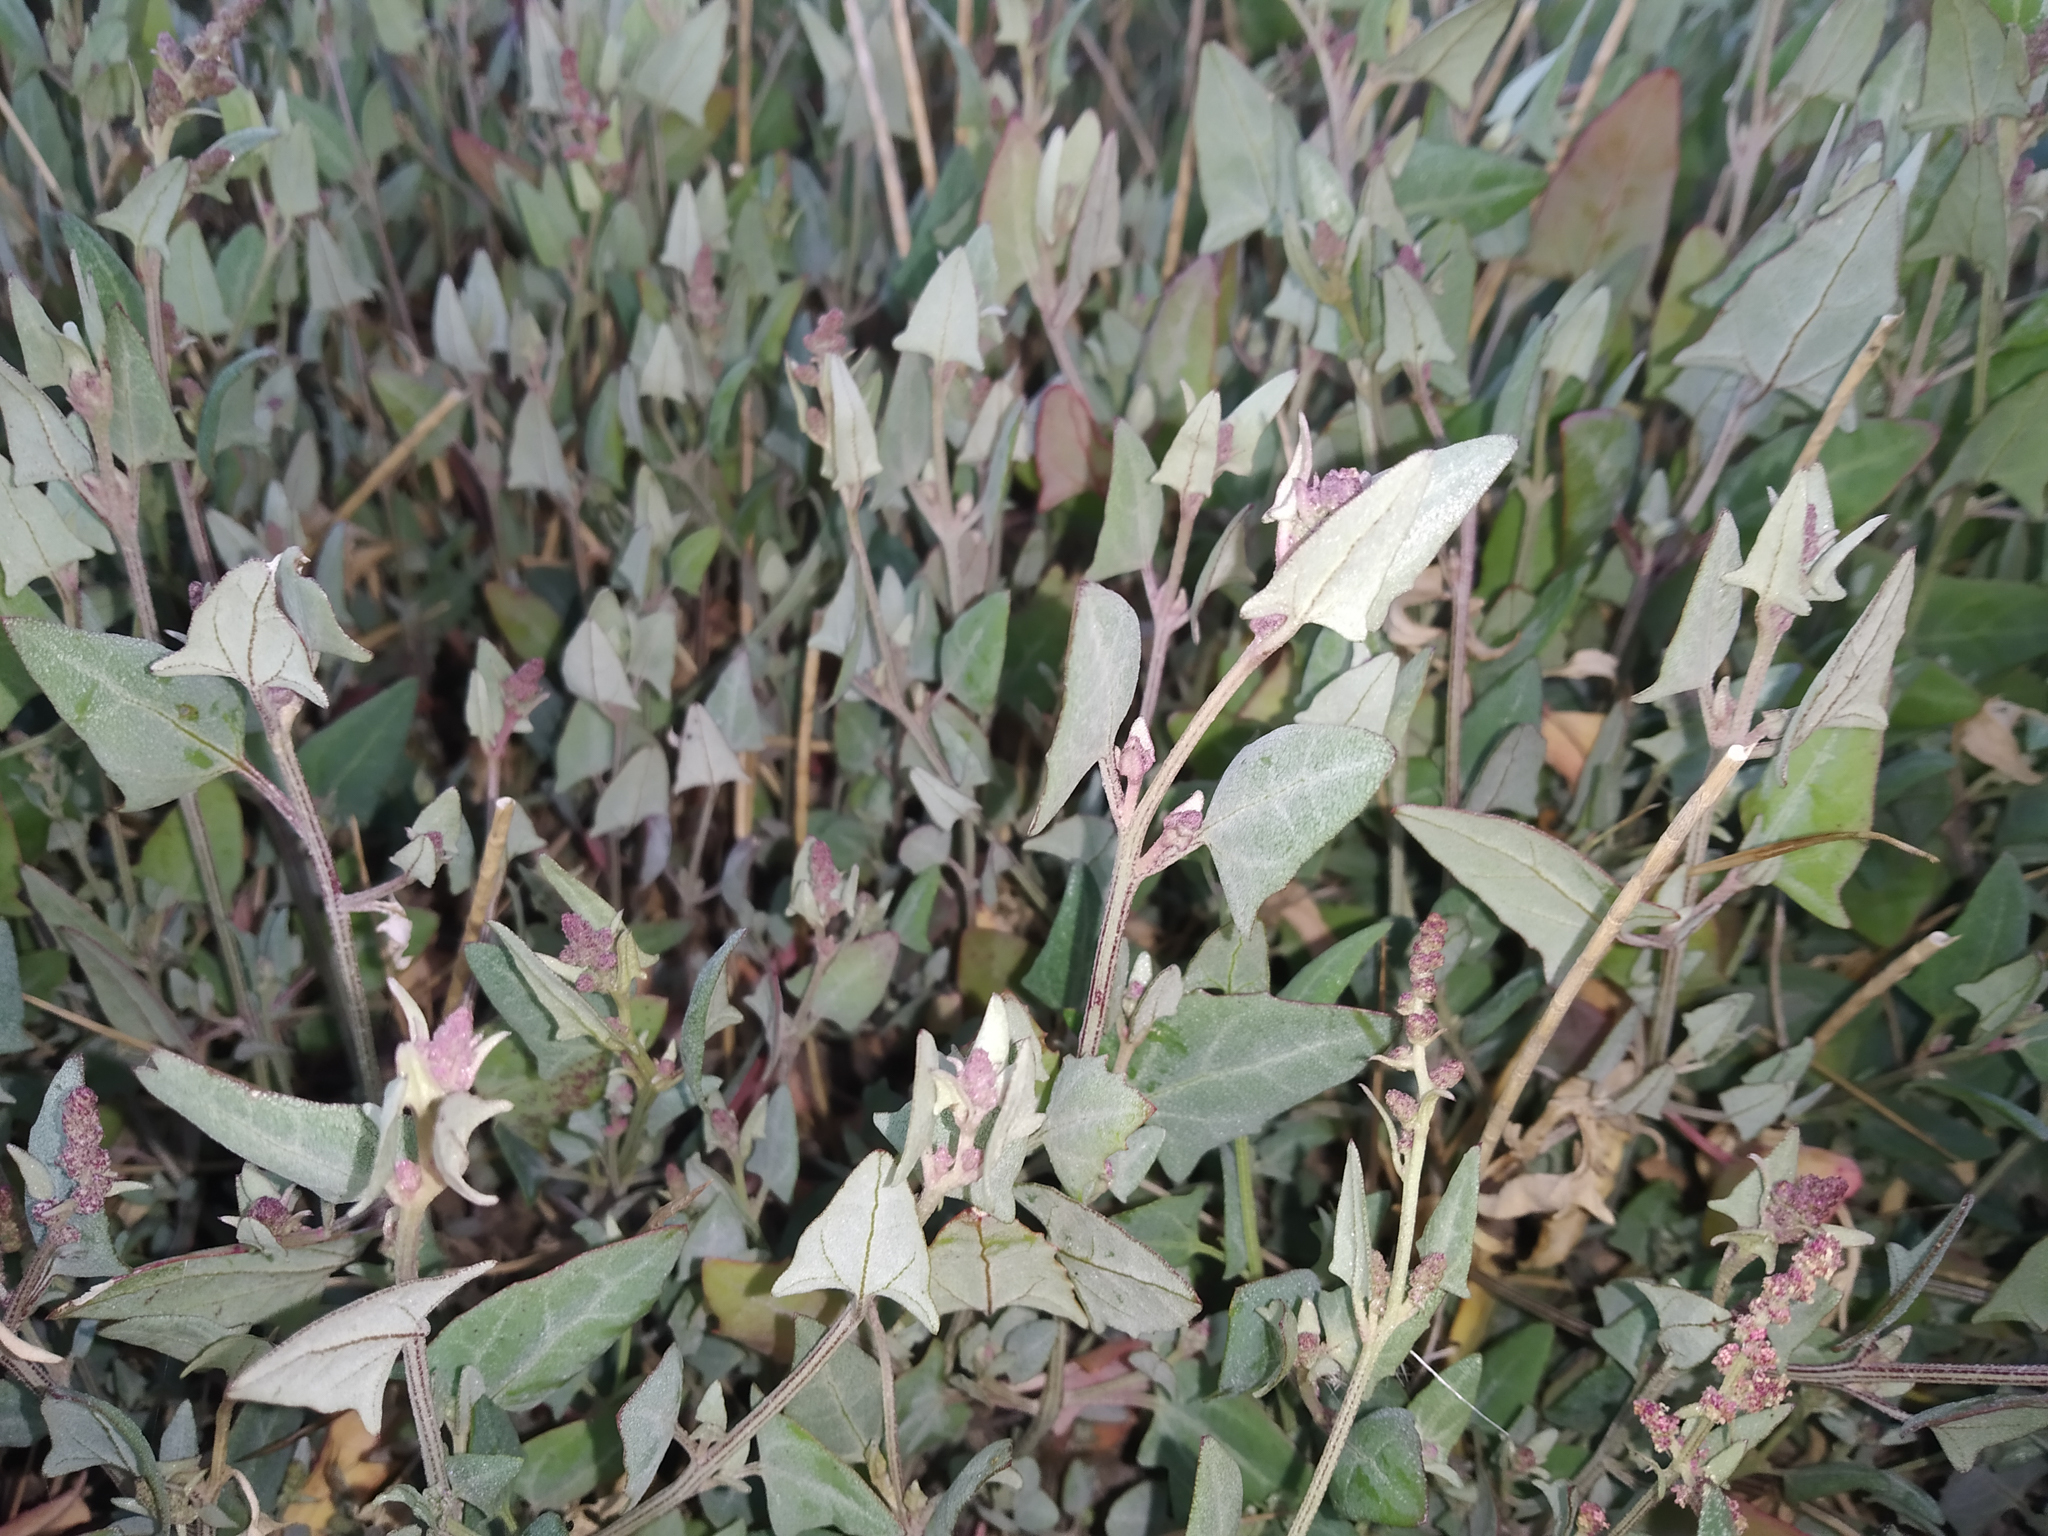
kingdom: Plantae
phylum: Tracheophyta
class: Magnoliopsida
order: Caryophyllales
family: Amaranthaceae
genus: Atriplex
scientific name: Atriplex prostrata
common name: Spear-leaved orache
